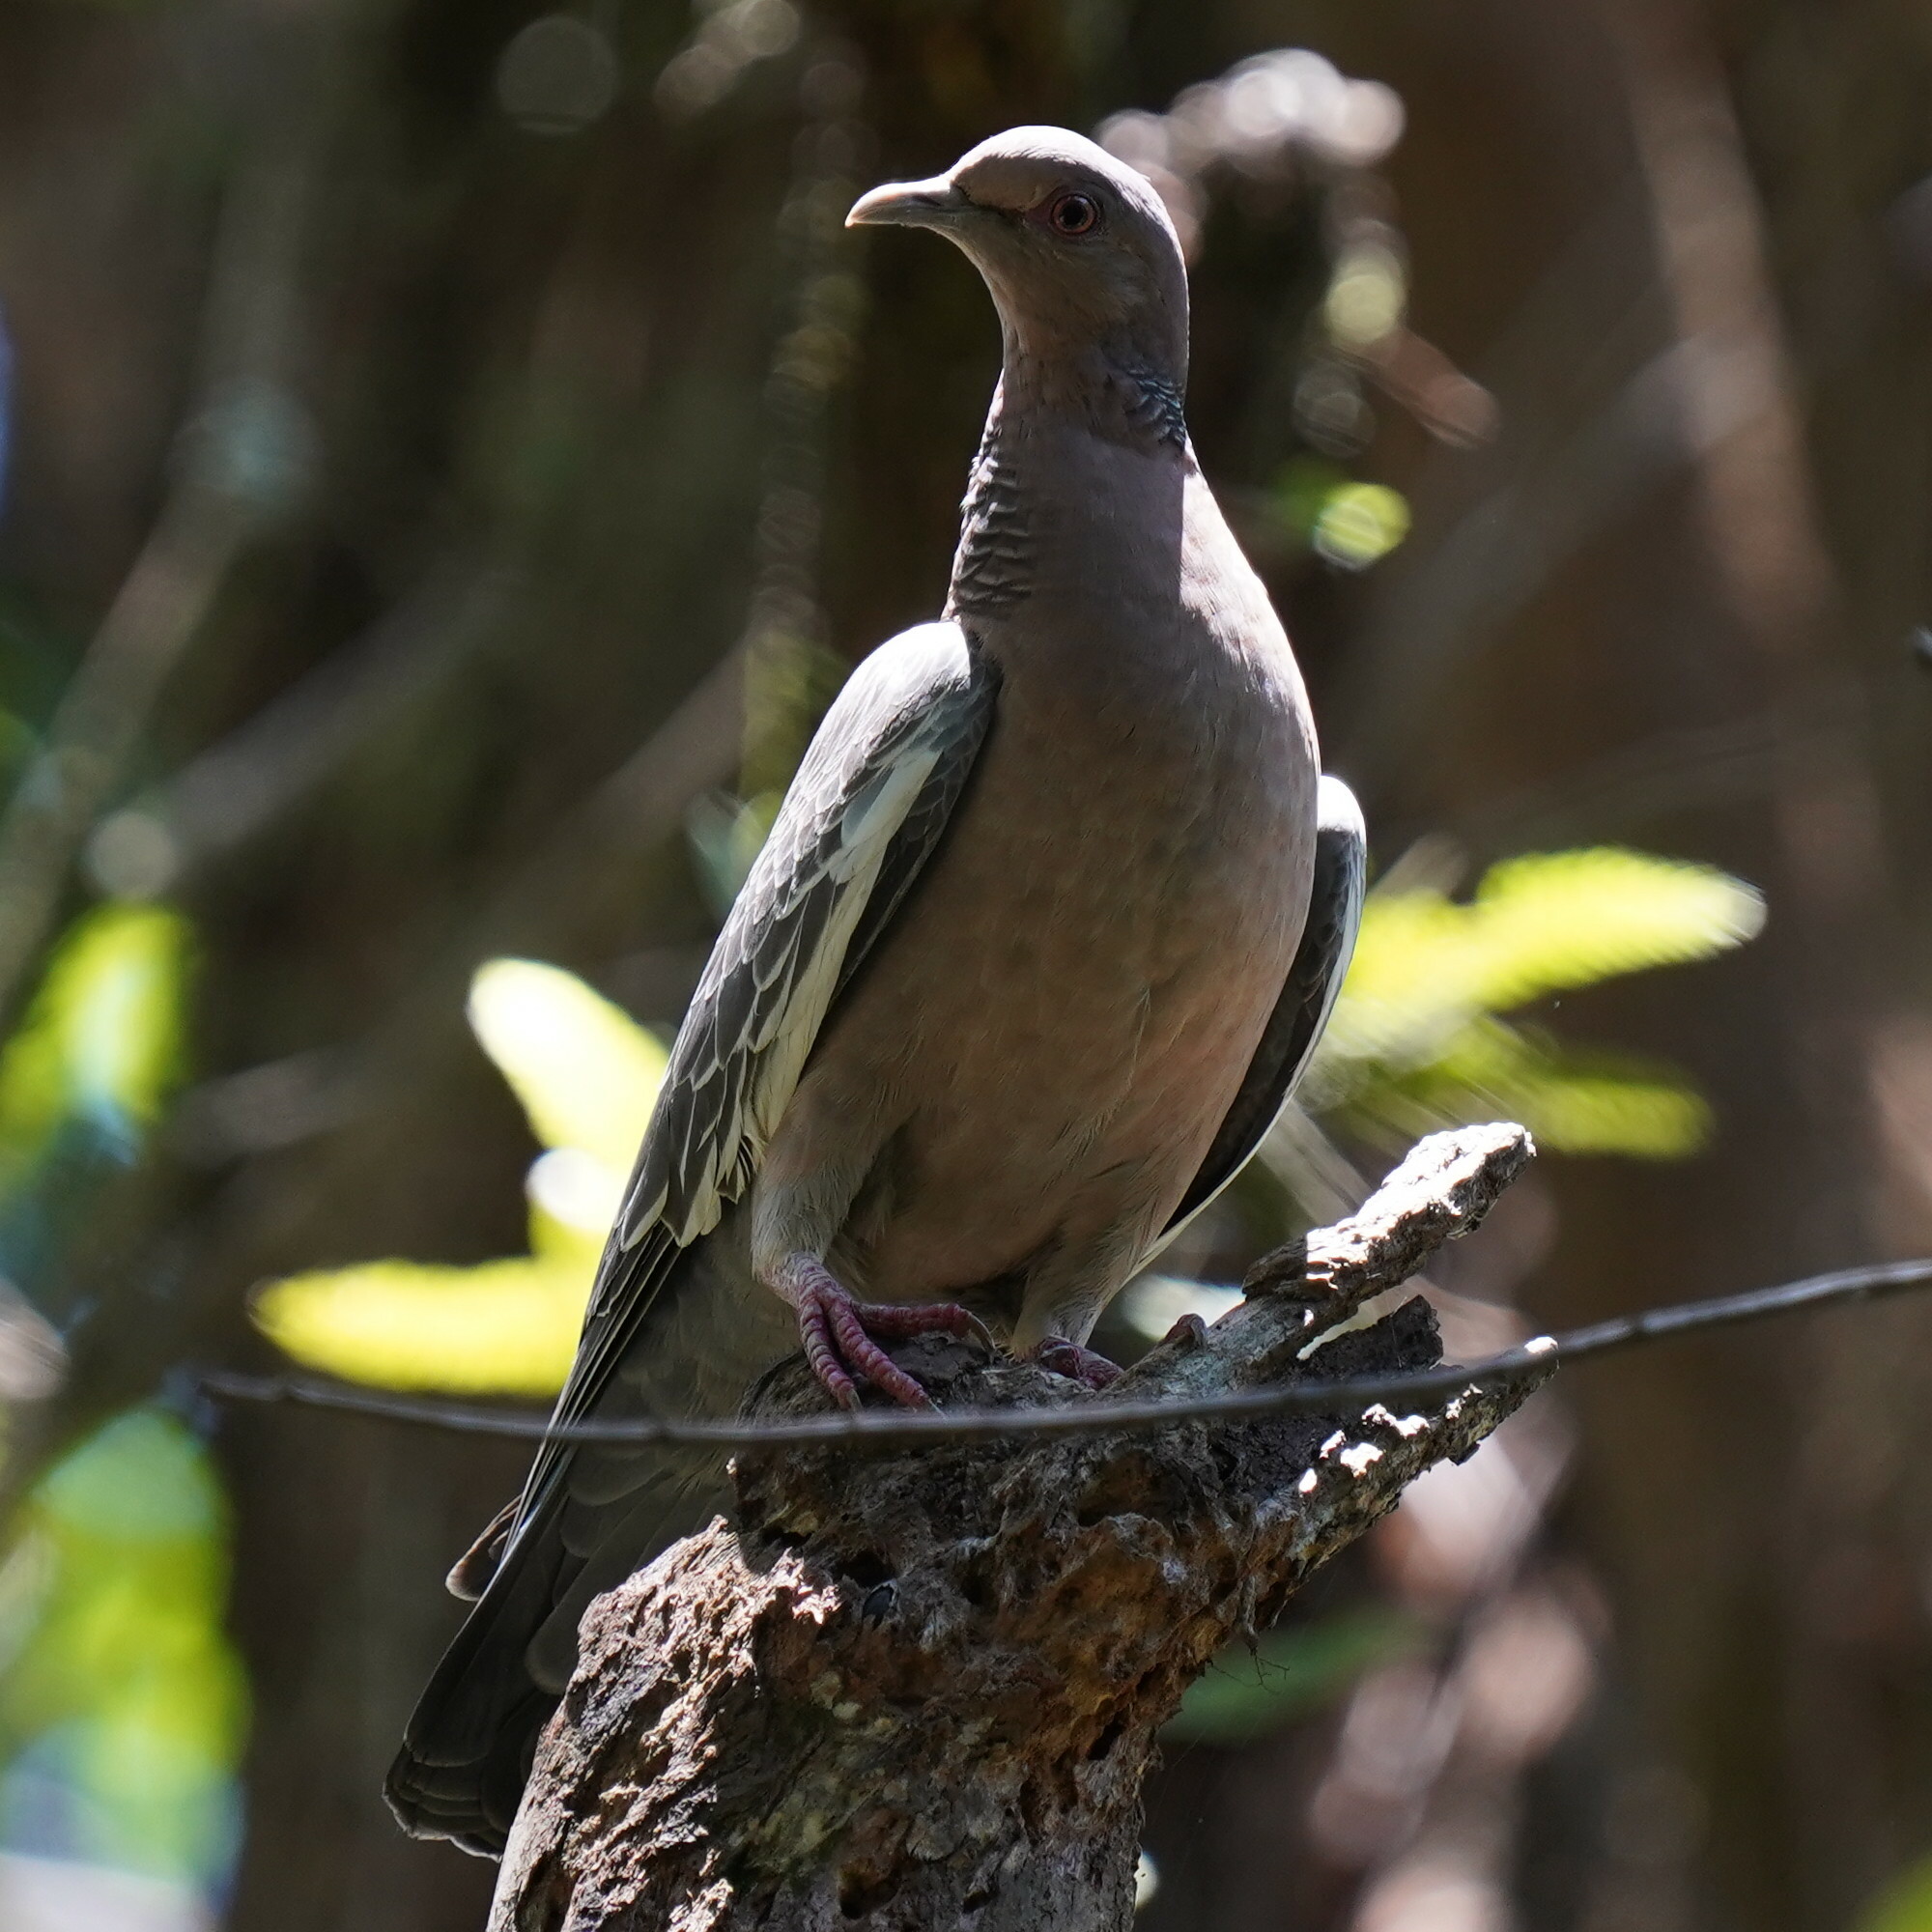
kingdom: Animalia
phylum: Chordata
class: Aves
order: Columbiformes
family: Columbidae
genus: Patagioenas
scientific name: Patagioenas picazuro
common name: Picazuro pigeon
